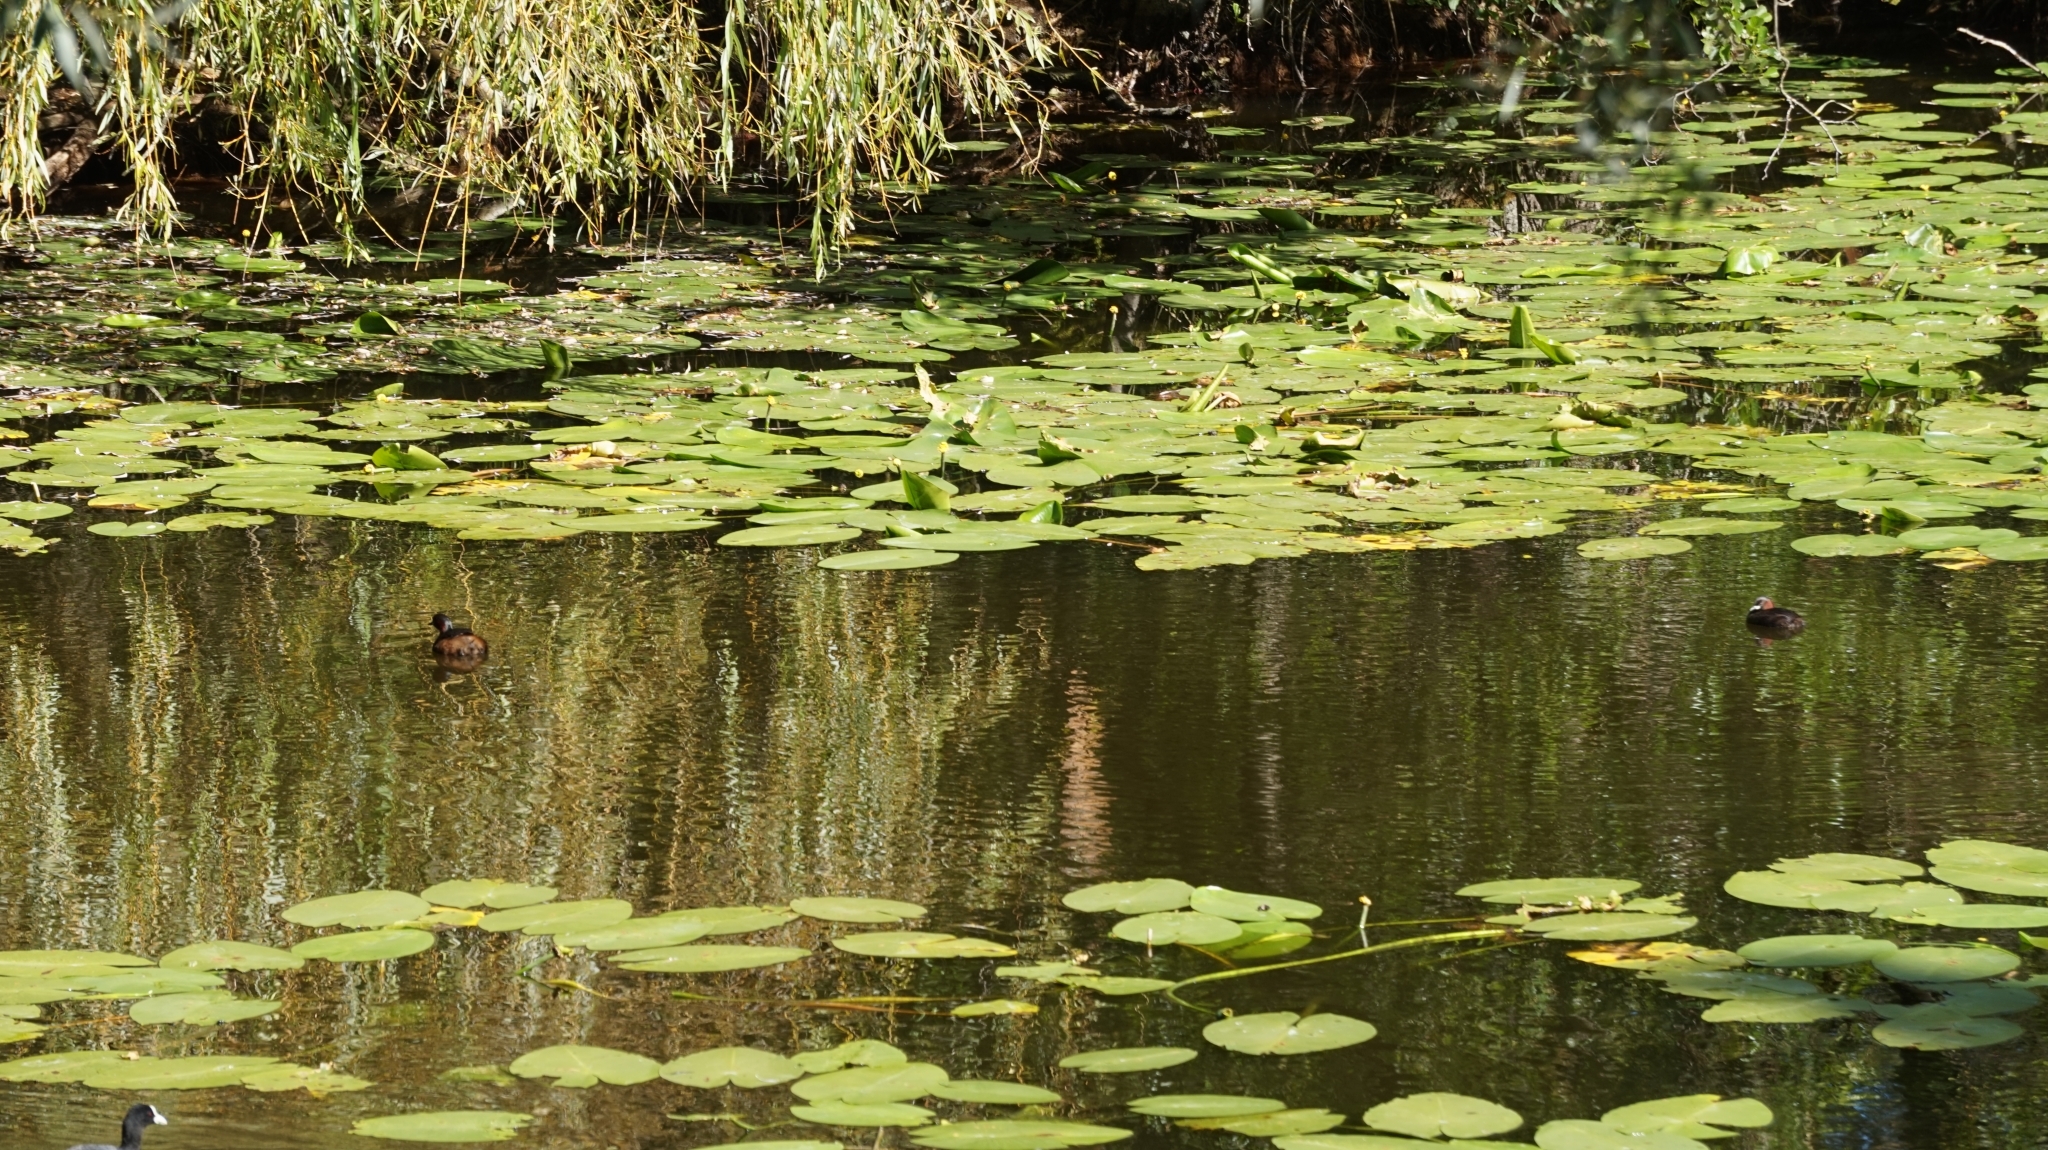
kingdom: Animalia
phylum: Chordata
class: Aves
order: Podicipediformes
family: Podicipedidae
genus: Tachybaptus
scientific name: Tachybaptus ruficollis
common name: Little grebe
